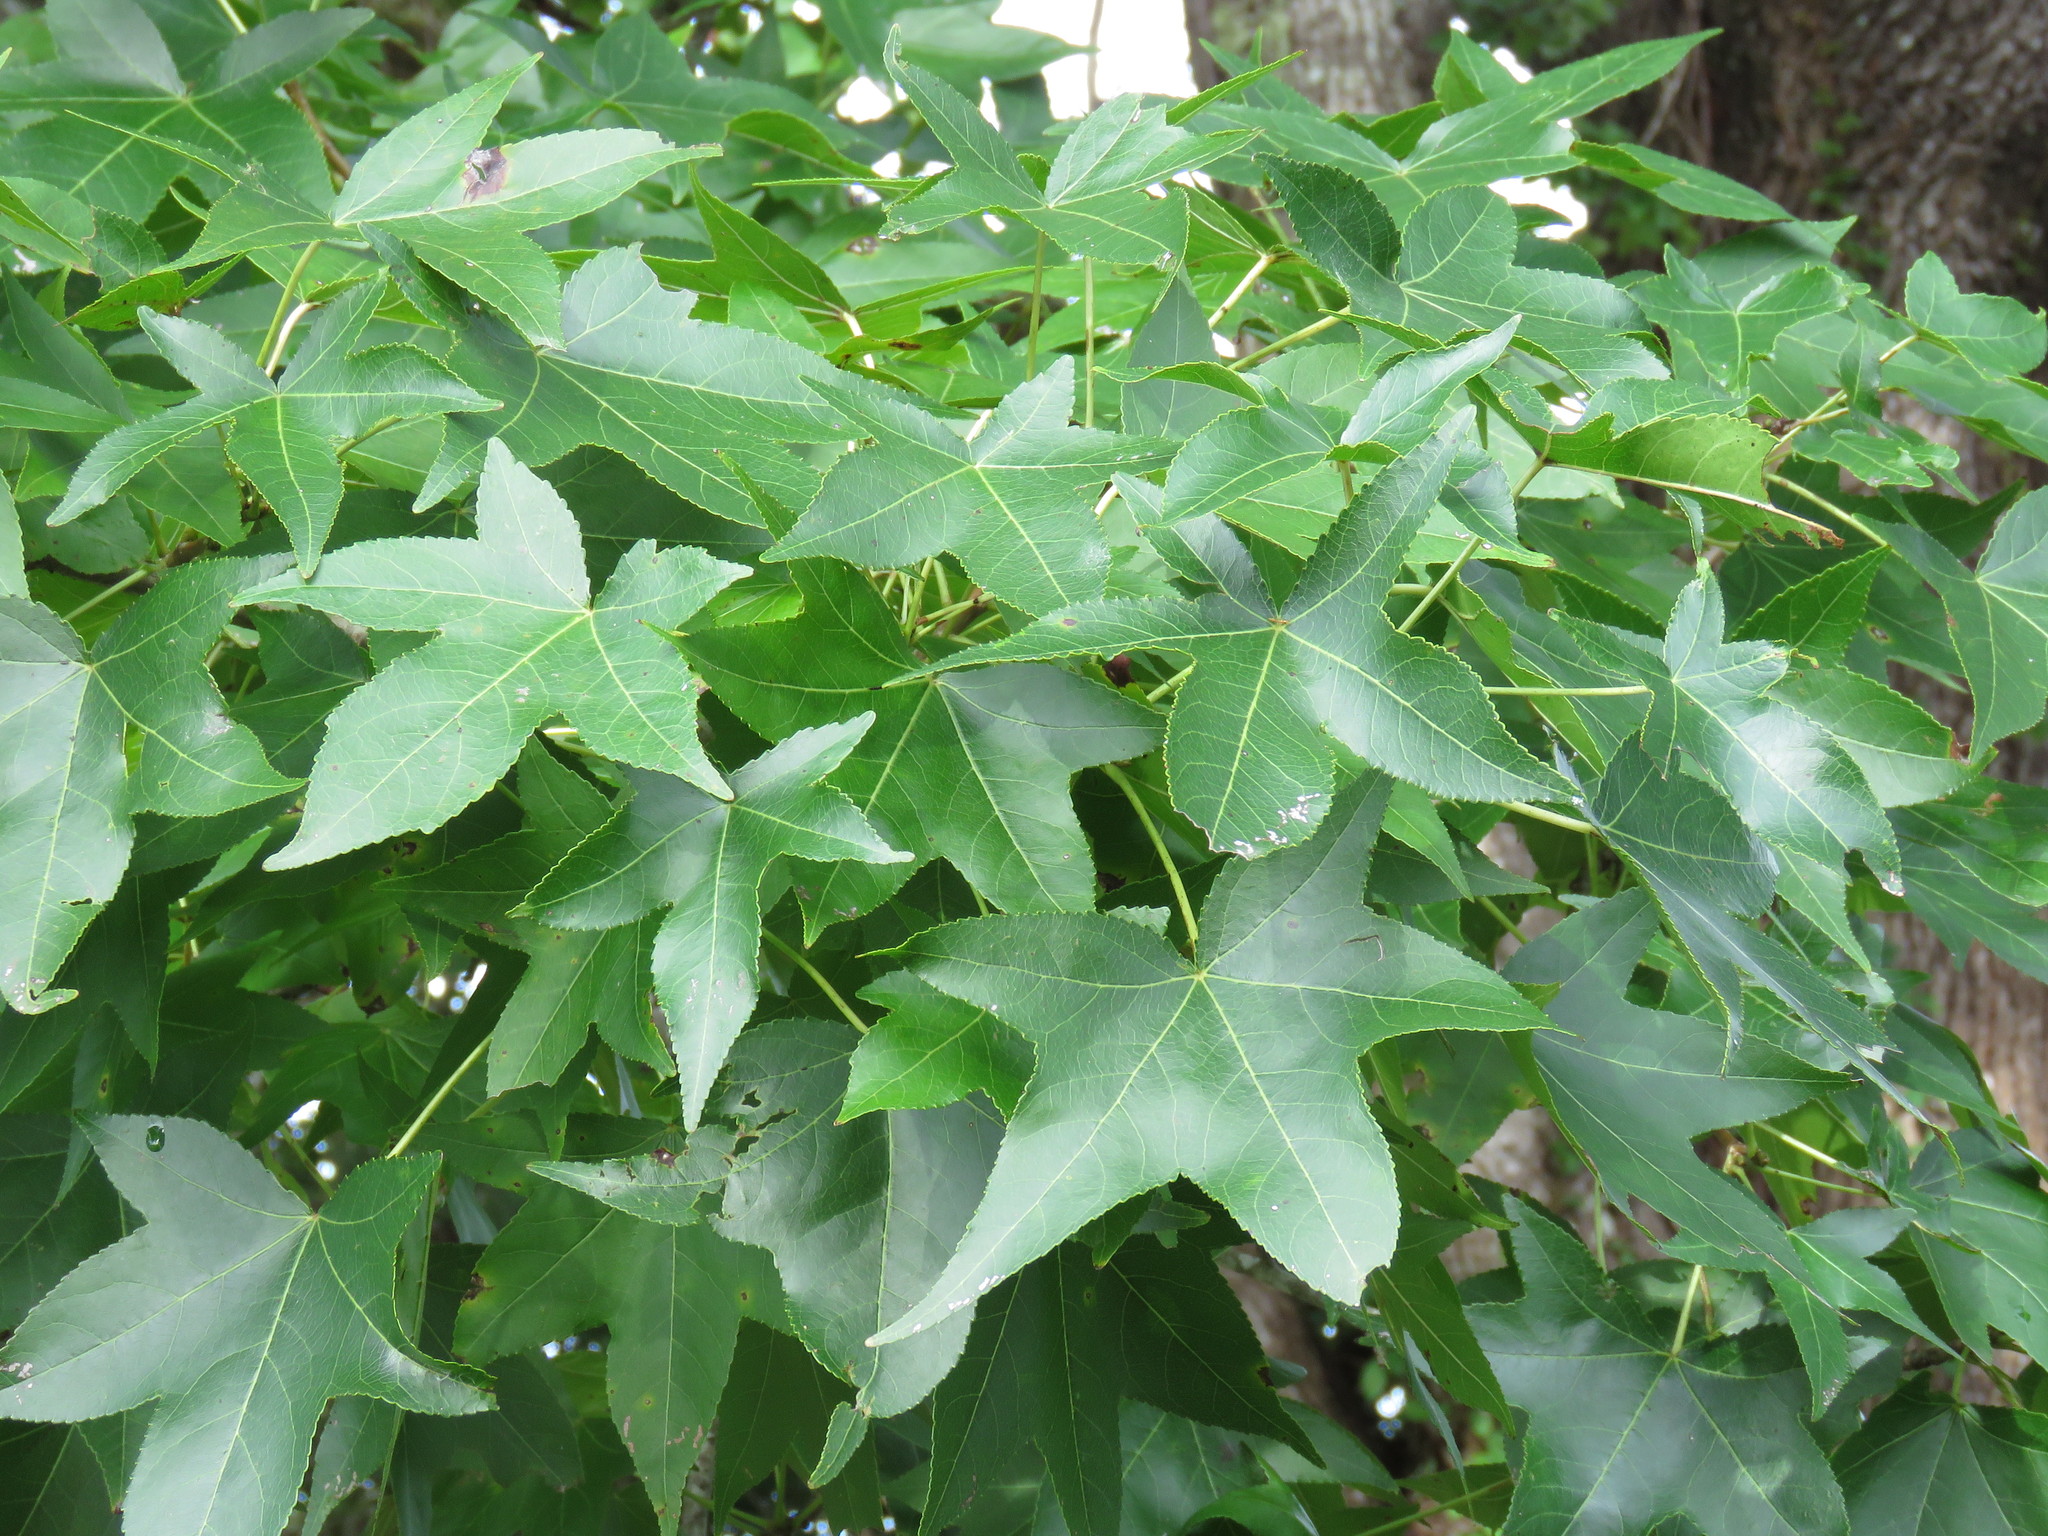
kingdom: Plantae
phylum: Tracheophyta
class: Magnoliopsida
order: Saxifragales
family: Altingiaceae
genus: Liquidambar
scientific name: Liquidambar styraciflua
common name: Sweet gum
